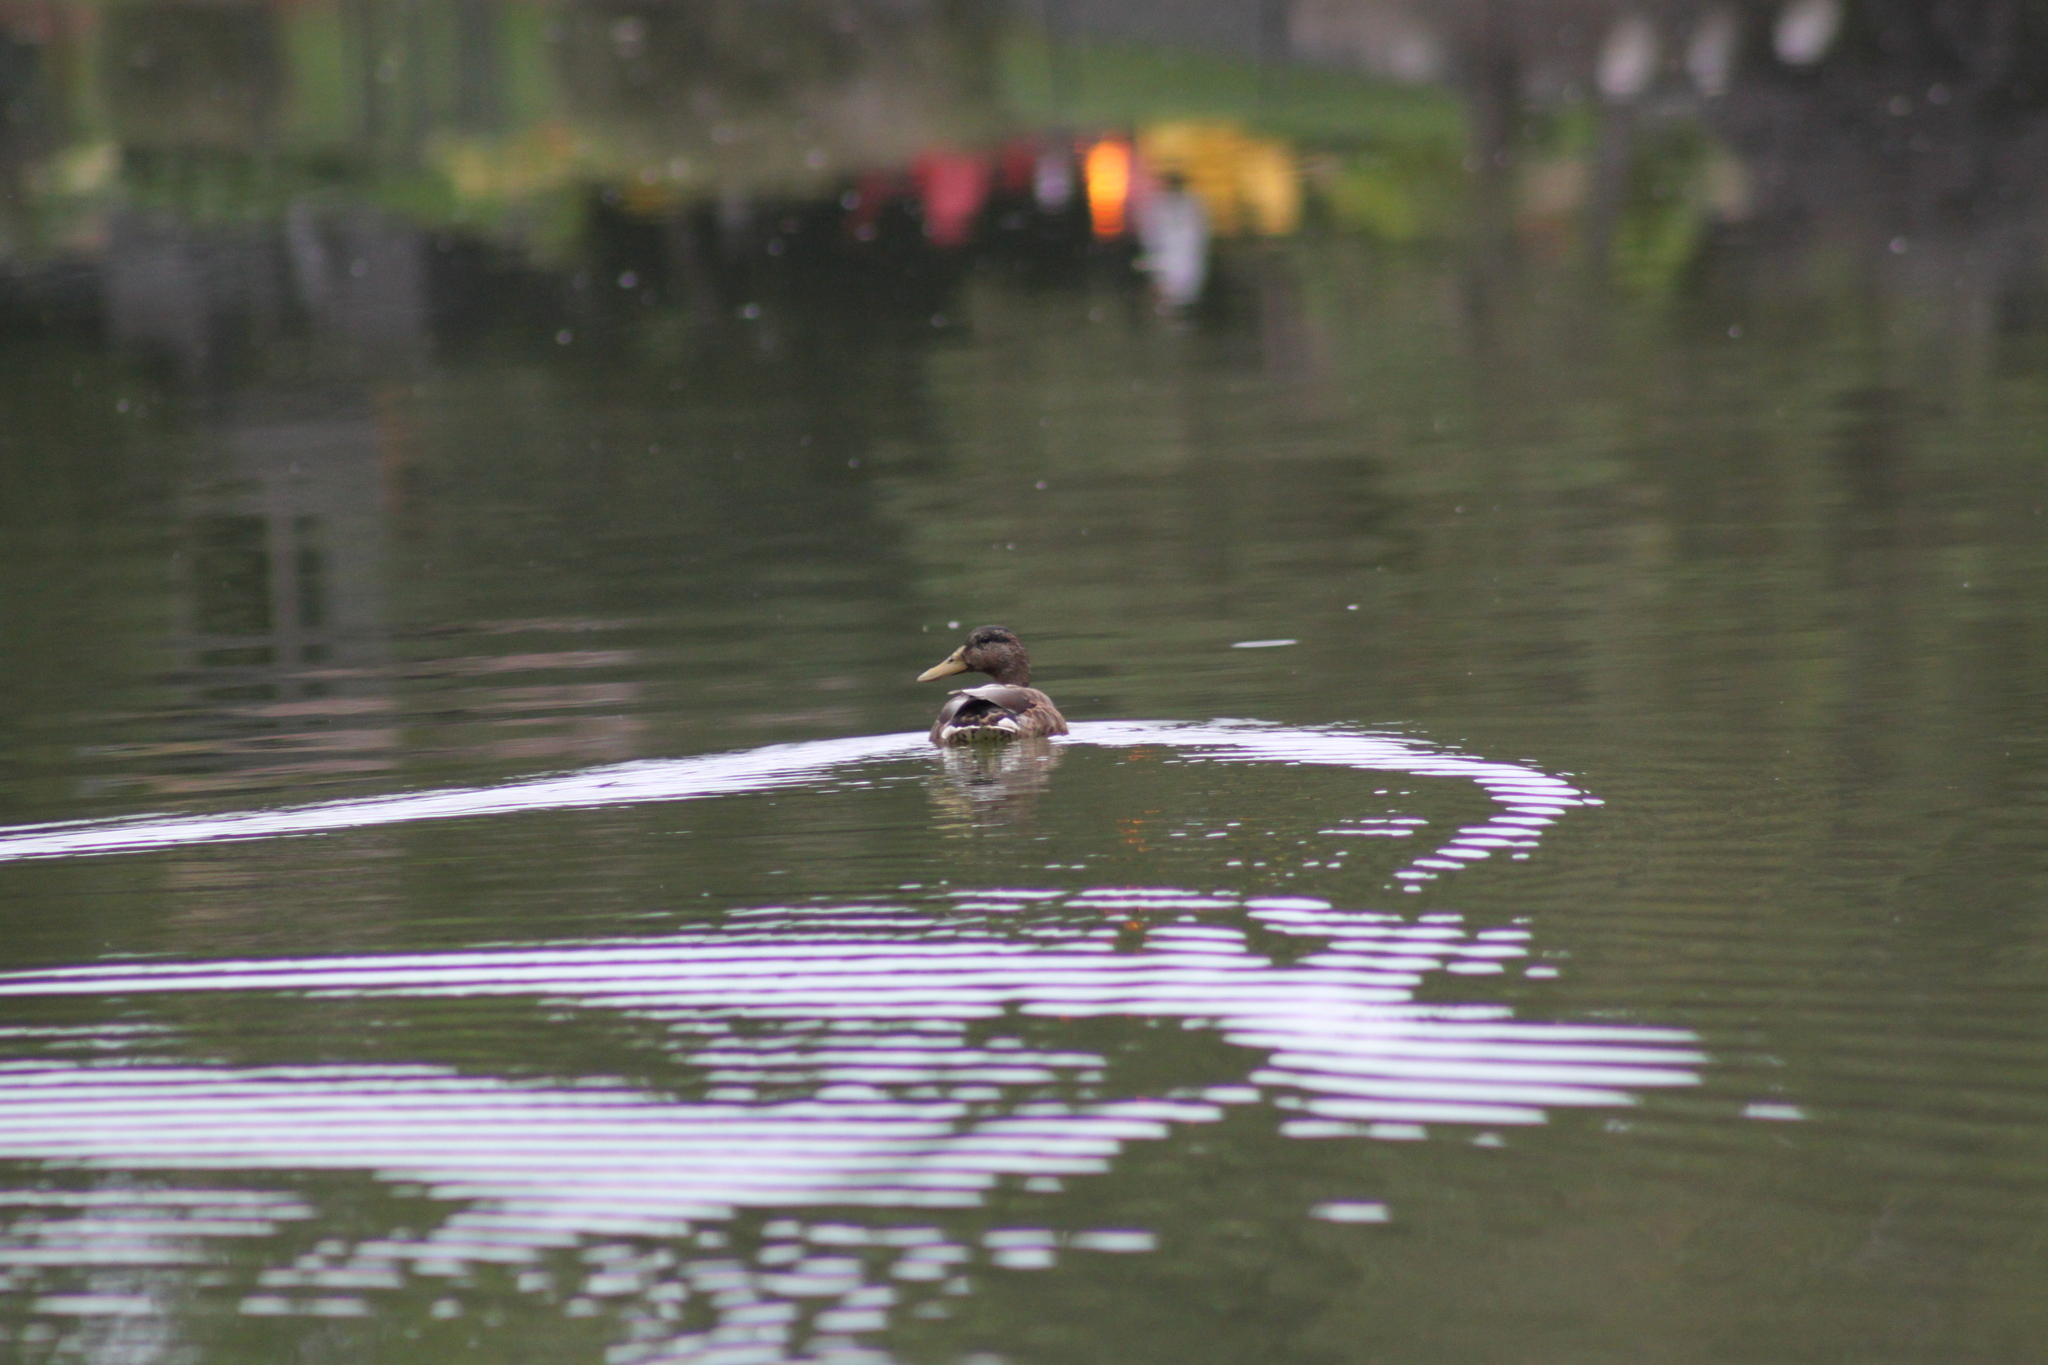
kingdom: Animalia
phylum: Chordata
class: Aves
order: Anseriformes
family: Anatidae
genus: Anas
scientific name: Anas platyrhynchos
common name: Mallard
